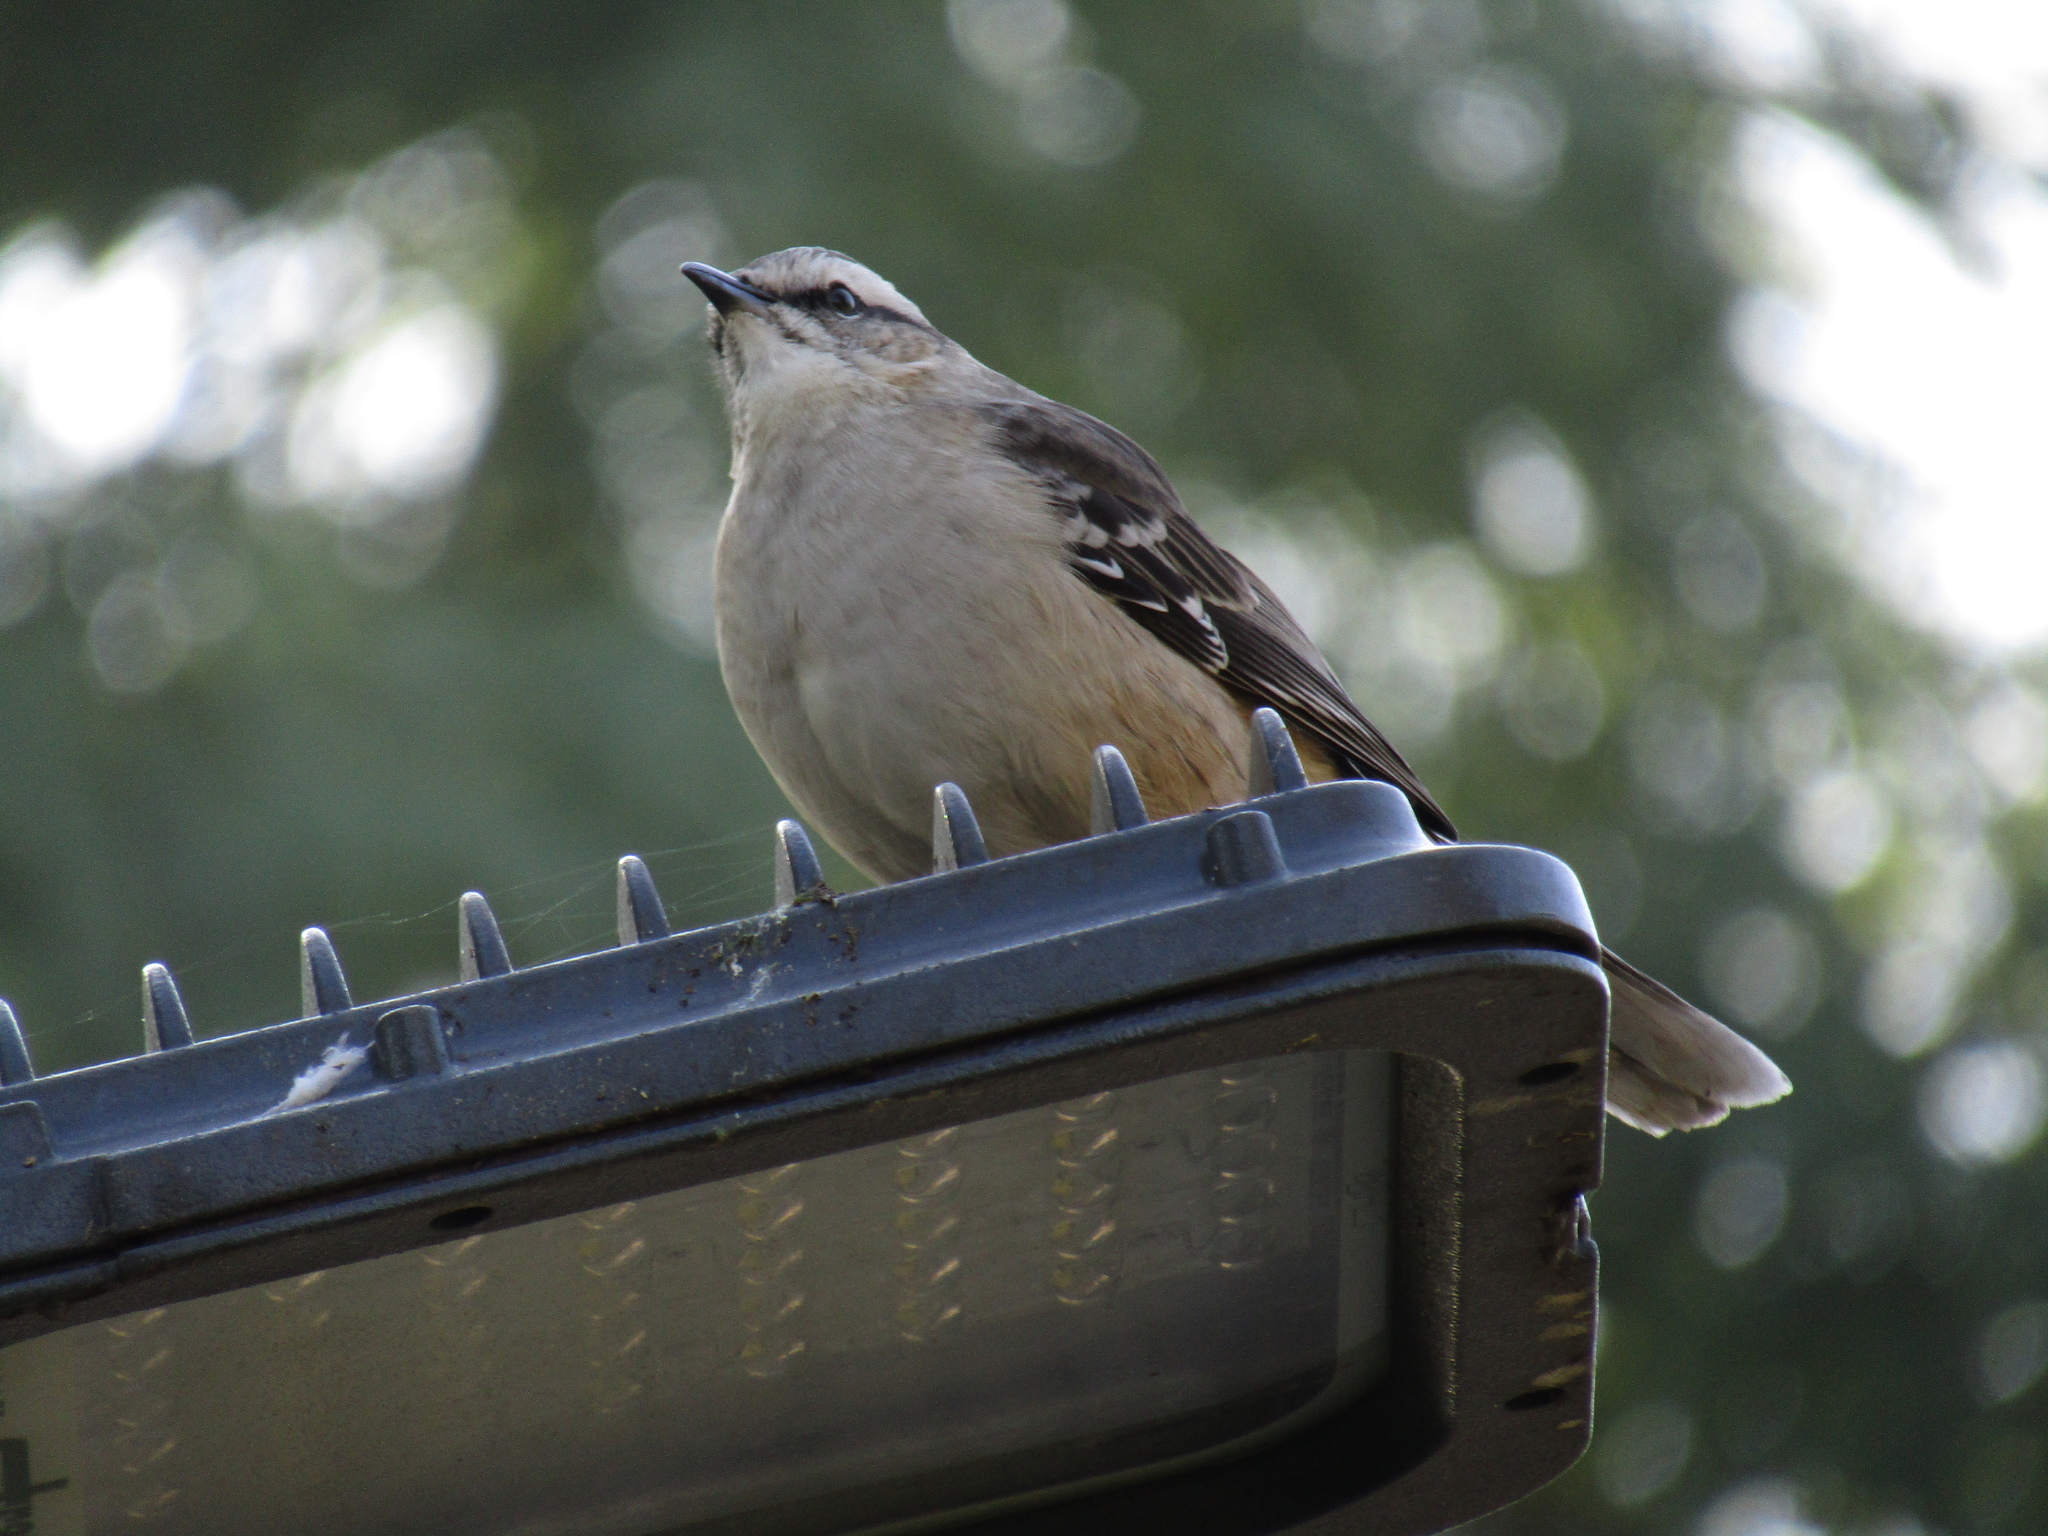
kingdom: Animalia
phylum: Chordata
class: Aves
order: Passeriformes
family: Mimidae
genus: Mimus
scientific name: Mimus saturninus
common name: Chalk-browed mockingbird
